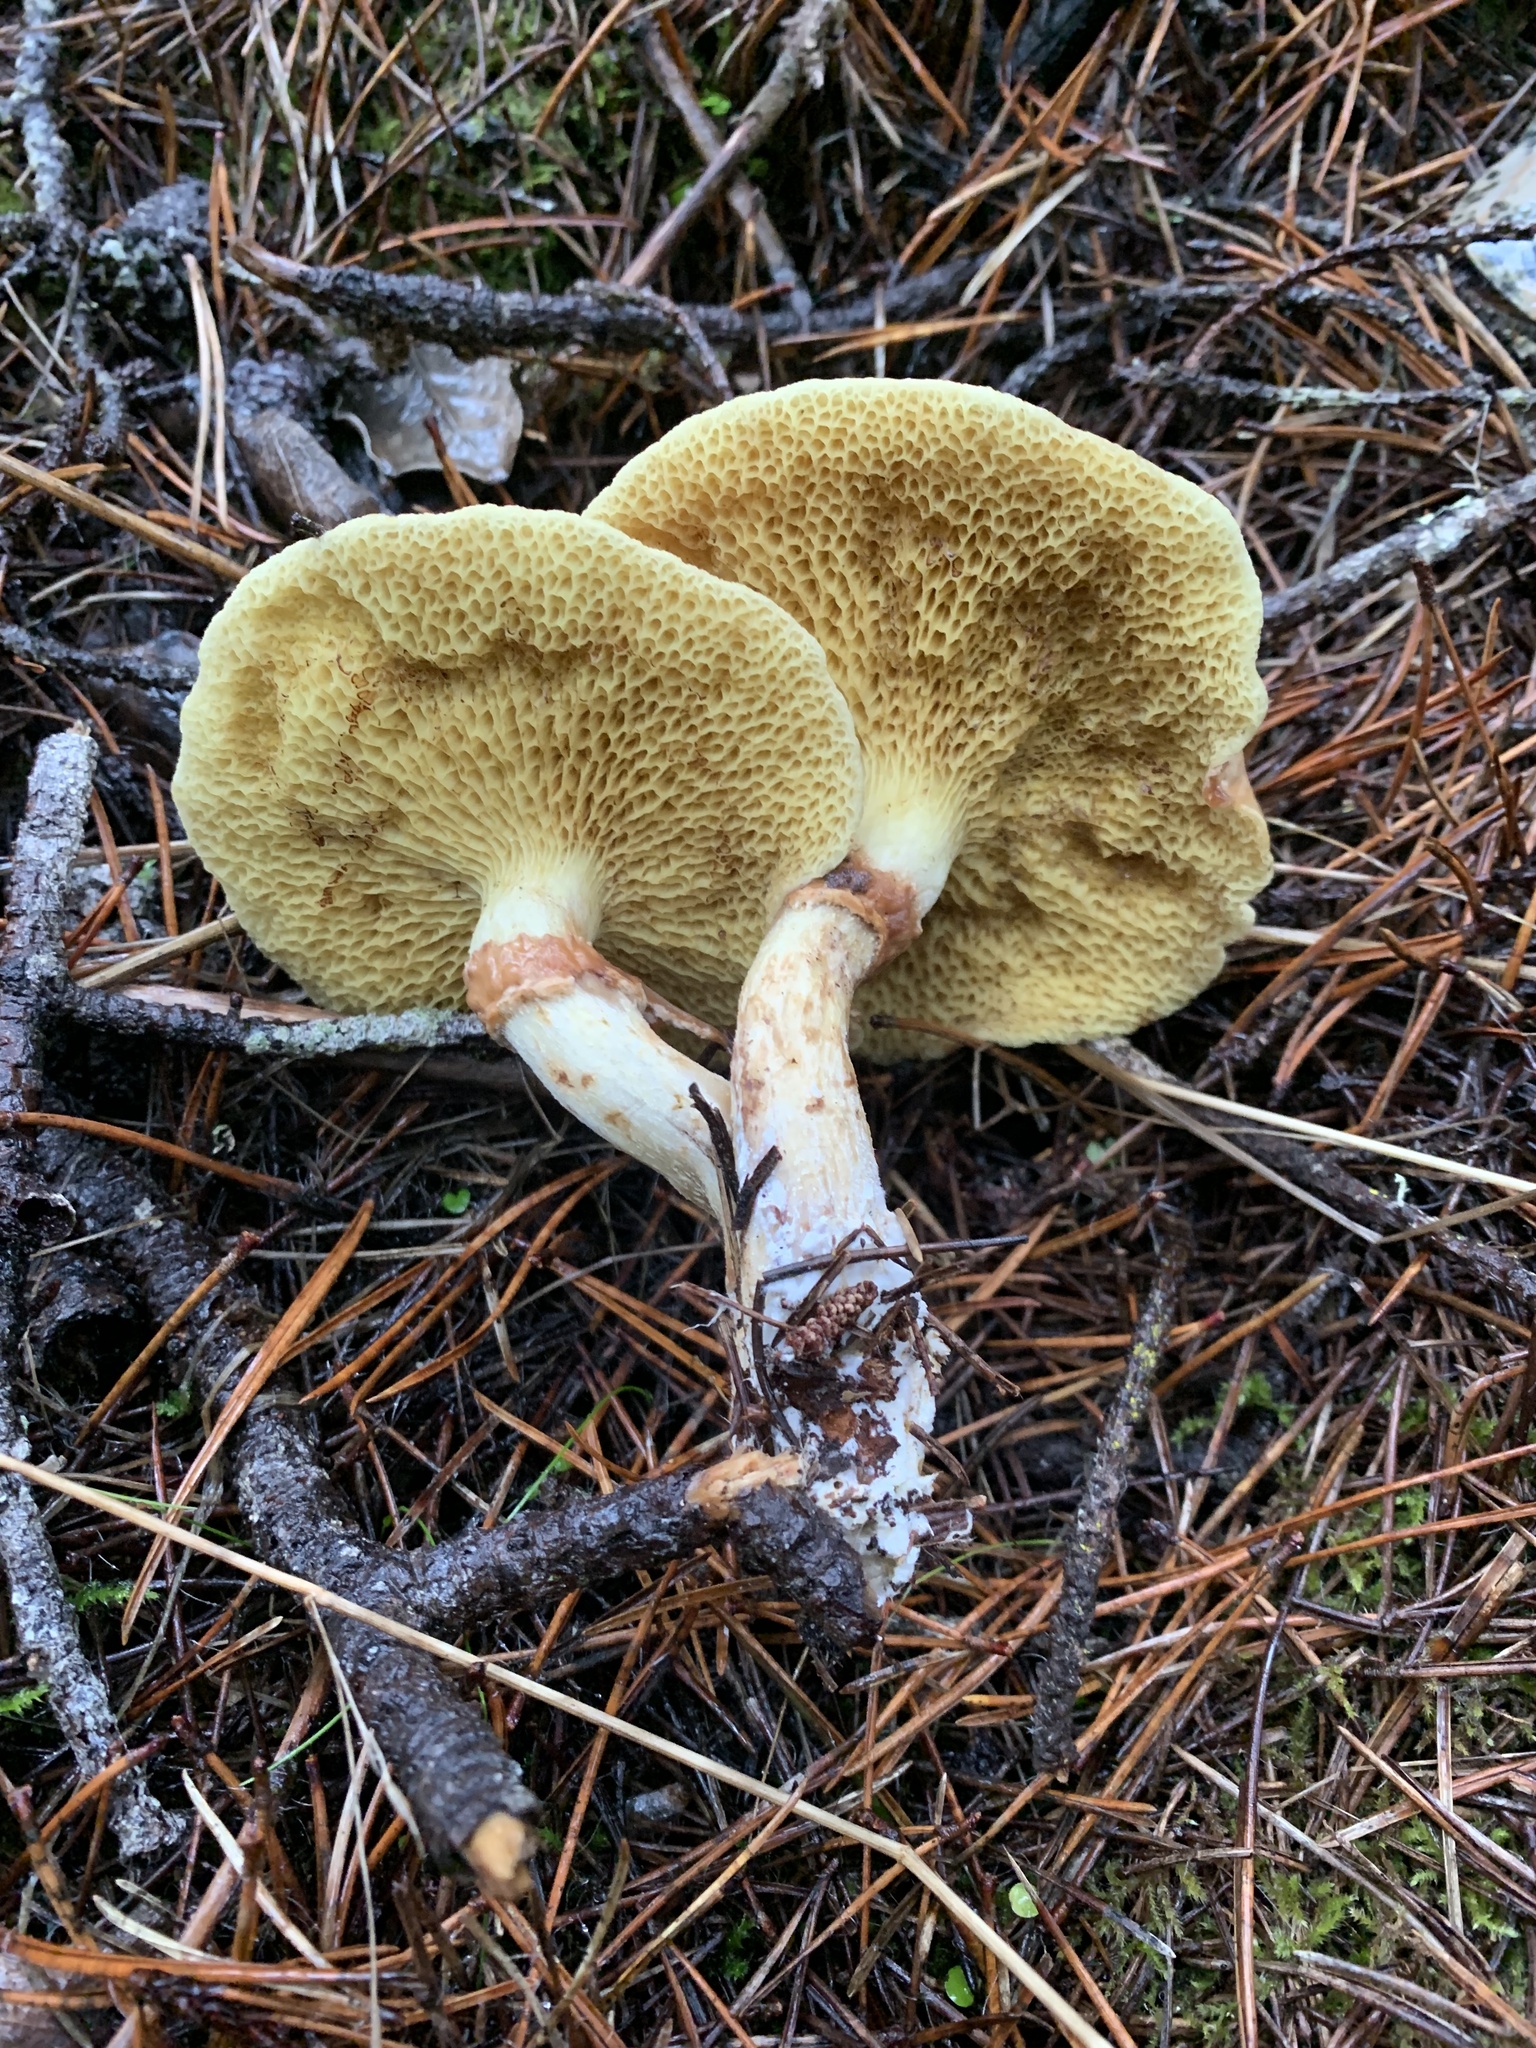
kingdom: Fungi
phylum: Basidiomycota
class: Agaricomycetes
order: Boletales
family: Suillaceae
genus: Suillus
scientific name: Suillus umbonatus
